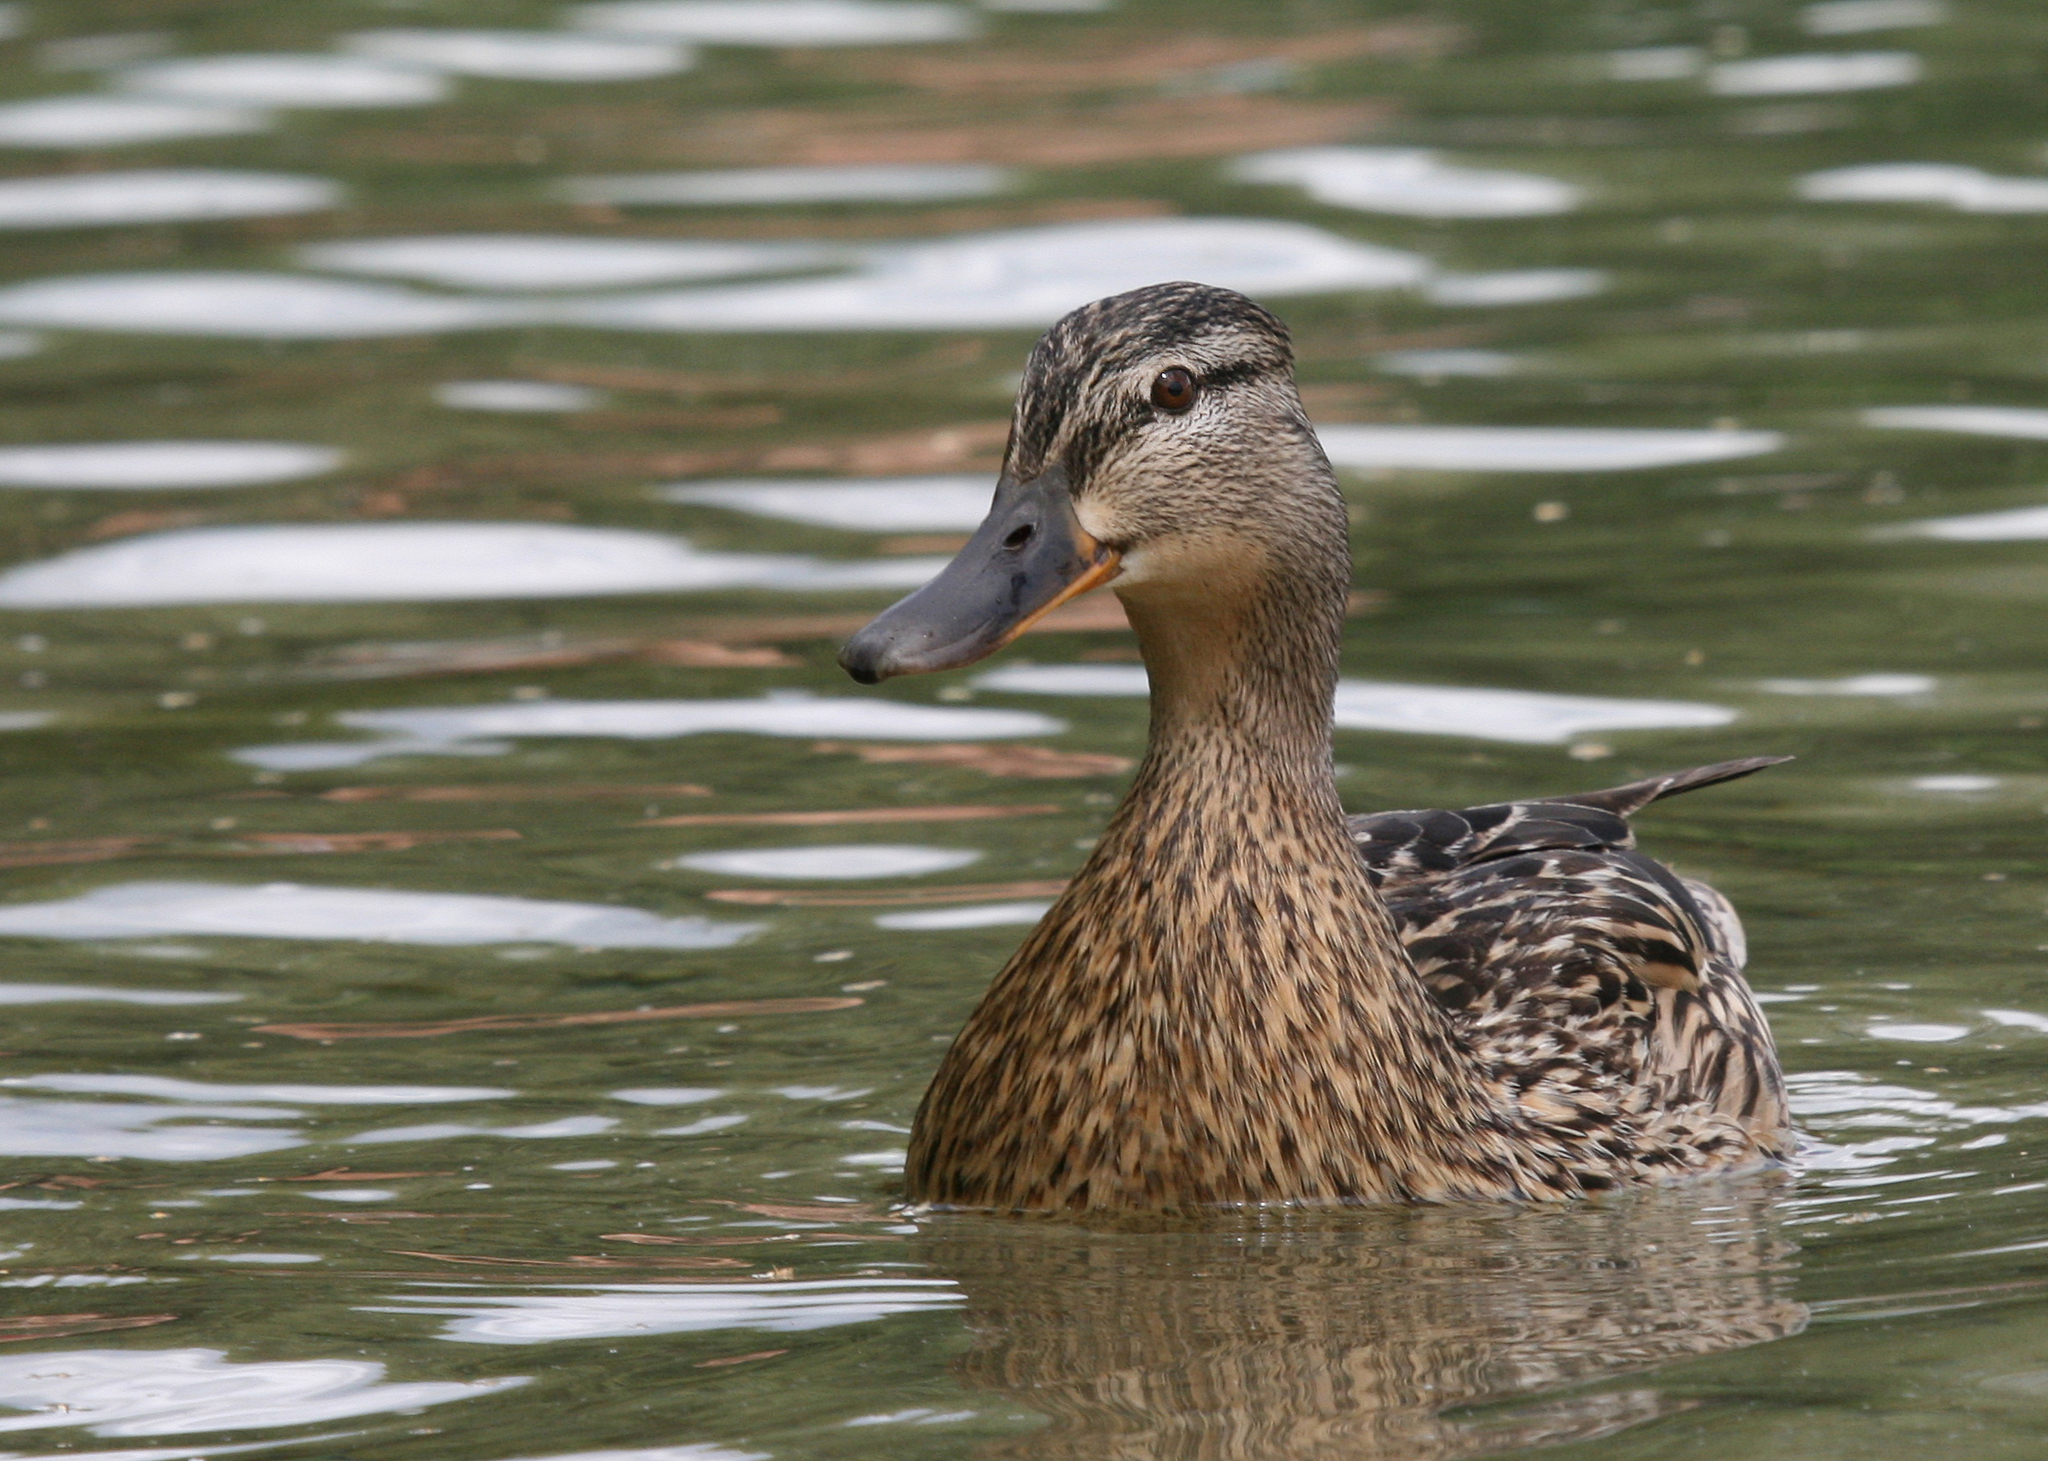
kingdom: Animalia
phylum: Chordata
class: Aves
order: Anseriformes
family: Anatidae
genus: Anas
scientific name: Anas platyrhynchos
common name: Mallard
